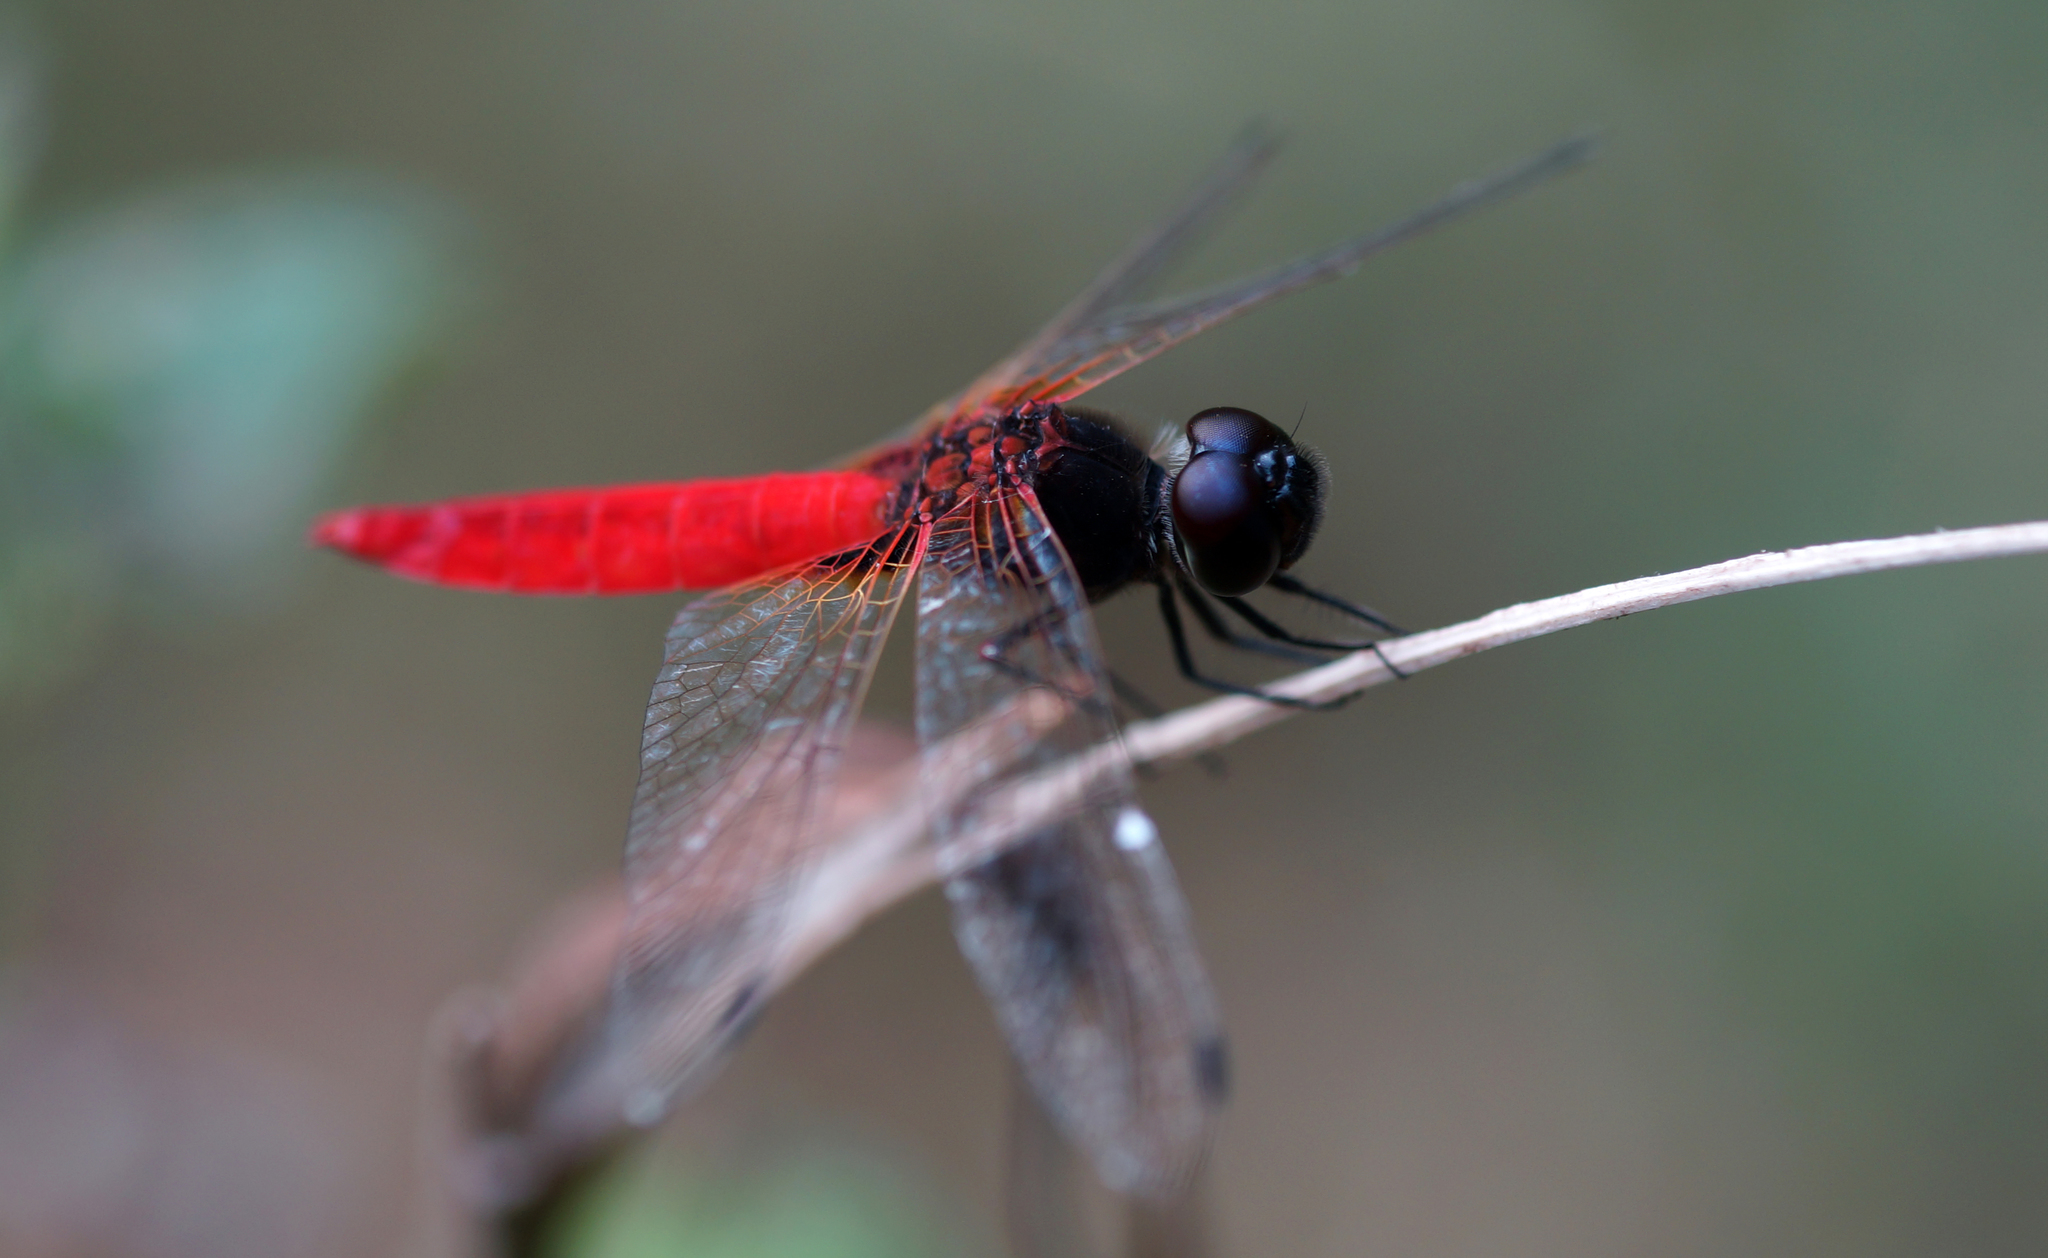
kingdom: Animalia
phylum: Arthropoda
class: Insecta
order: Odonata
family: Libellulidae
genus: Aethriamanta
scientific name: Aethriamanta brevipennis
